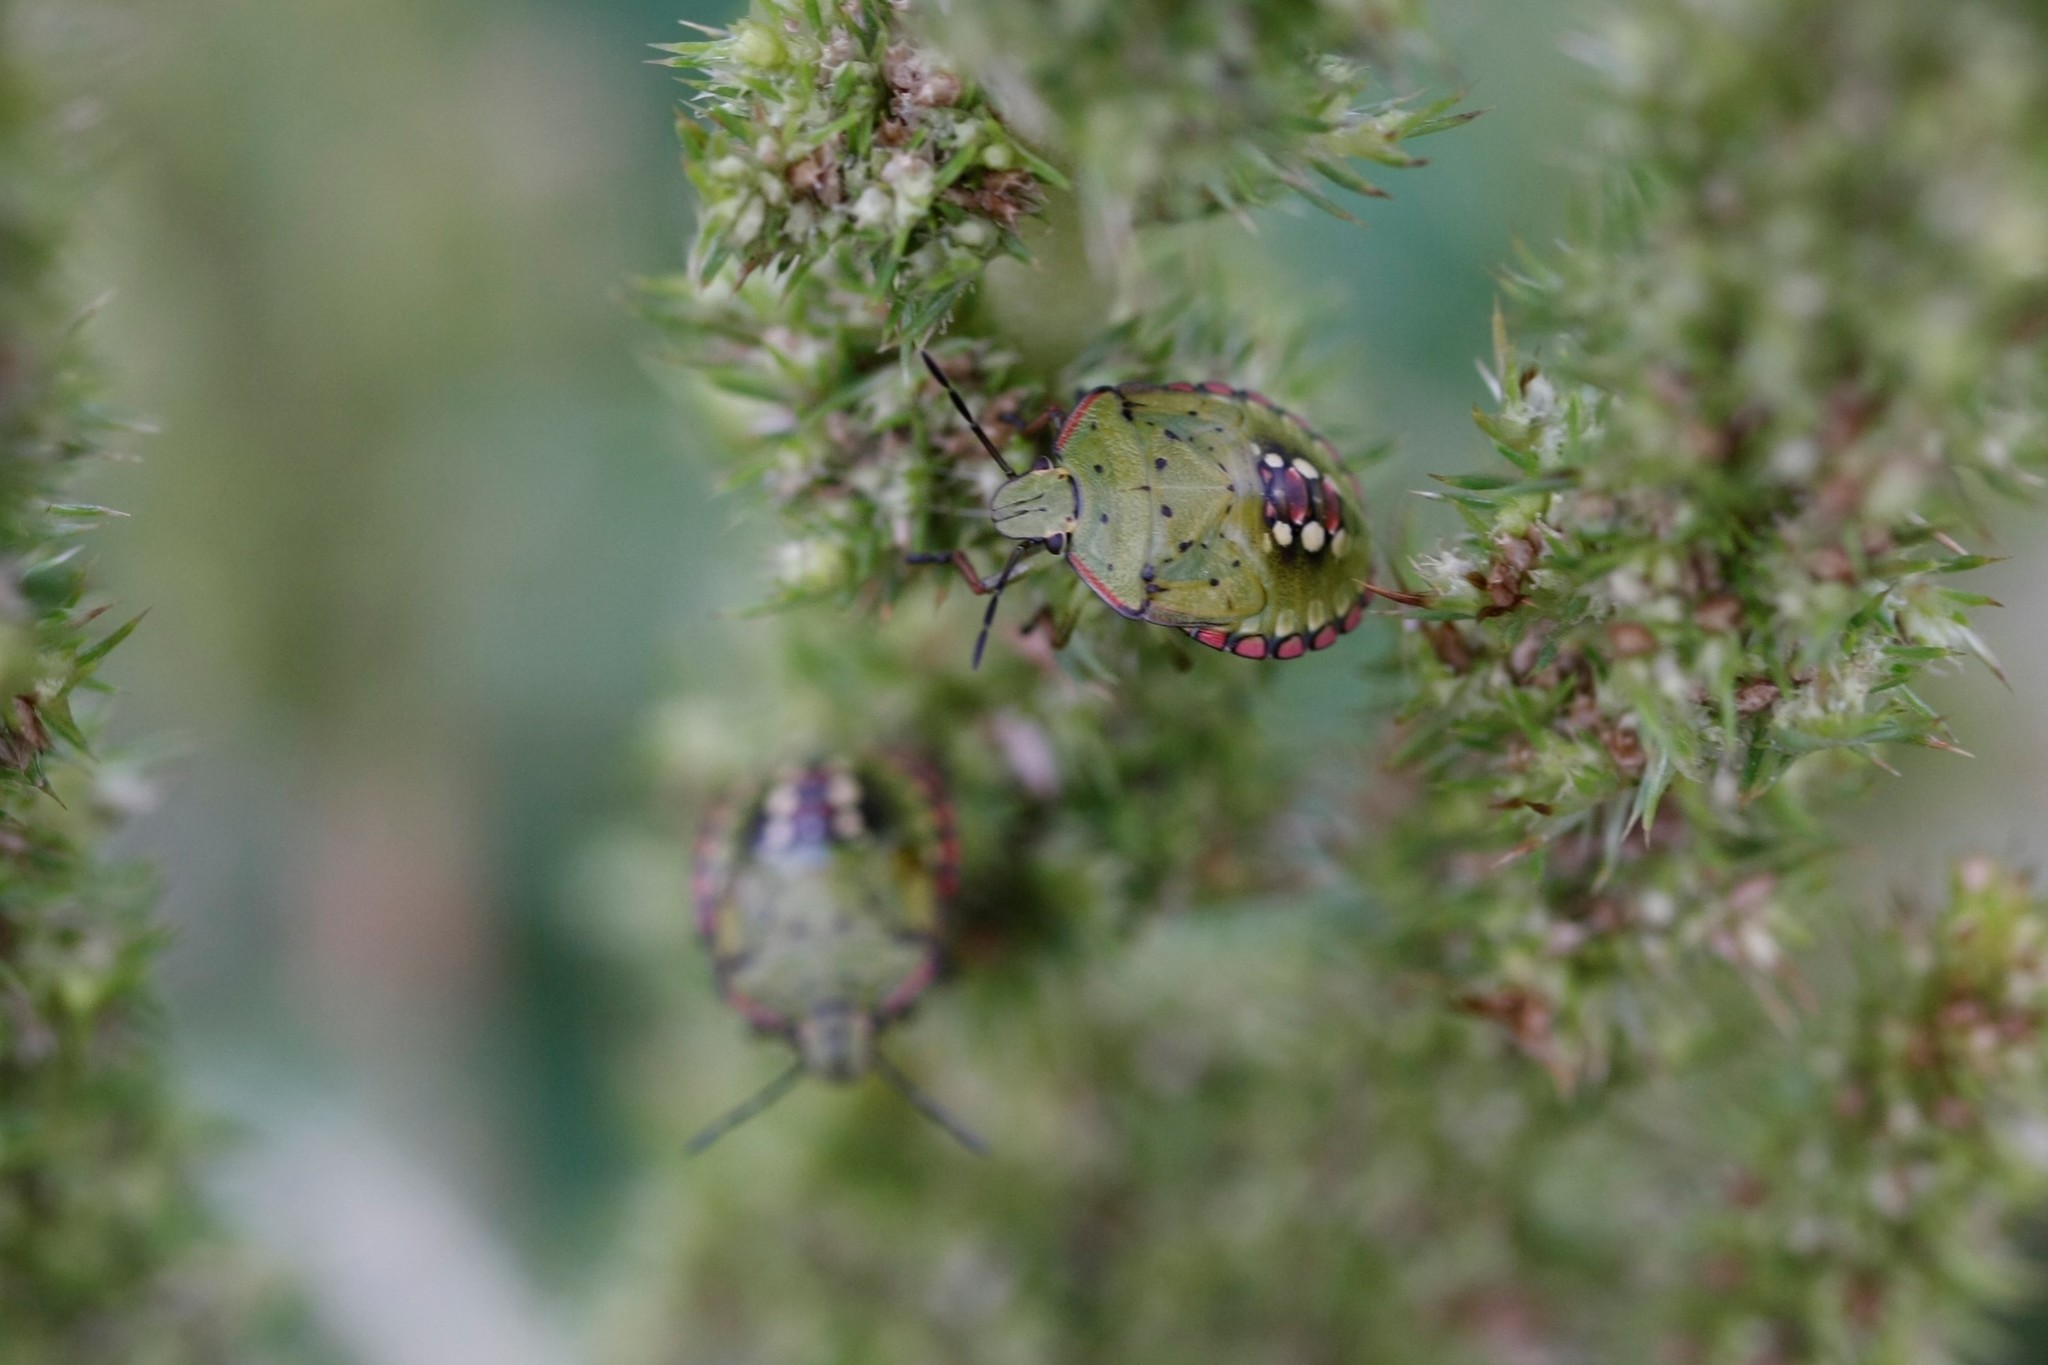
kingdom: Animalia
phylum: Arthropoda
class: Insecta
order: Hemiptera
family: Pentatomidae
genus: Nezara
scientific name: Nezara viridula
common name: Southern green stink bug
